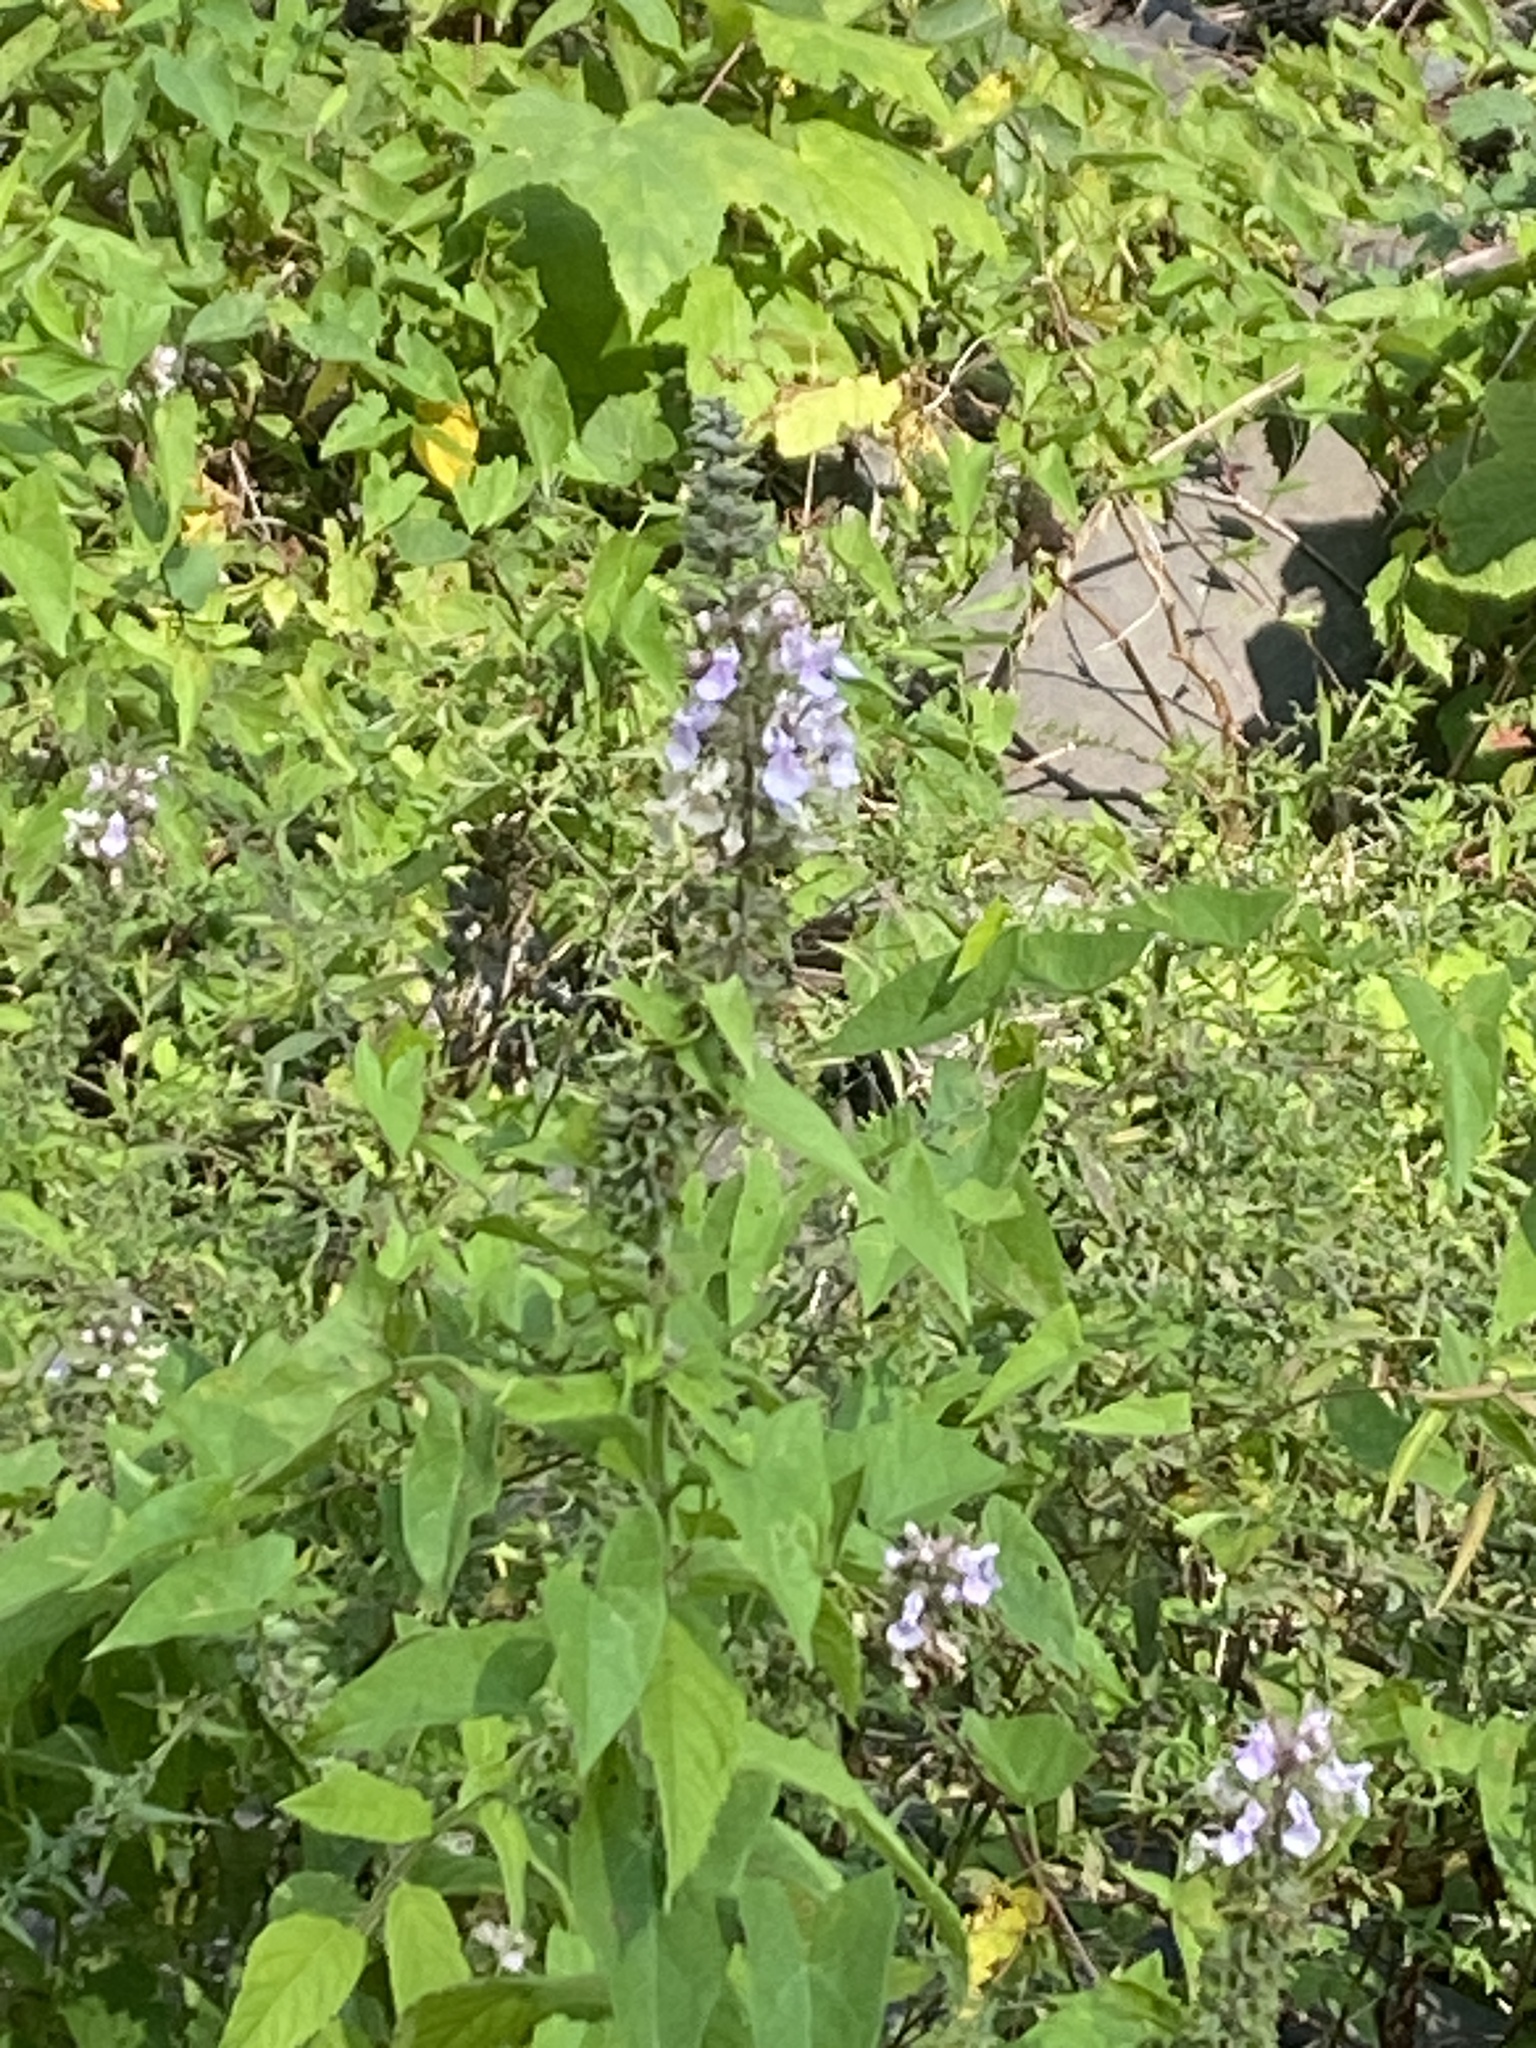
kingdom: Plantae
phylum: Tracheophyta
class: Magnoliopsida
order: Lamiales
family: Lamiaceae
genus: Teucrium
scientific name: Teucrium canadense
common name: American germander
